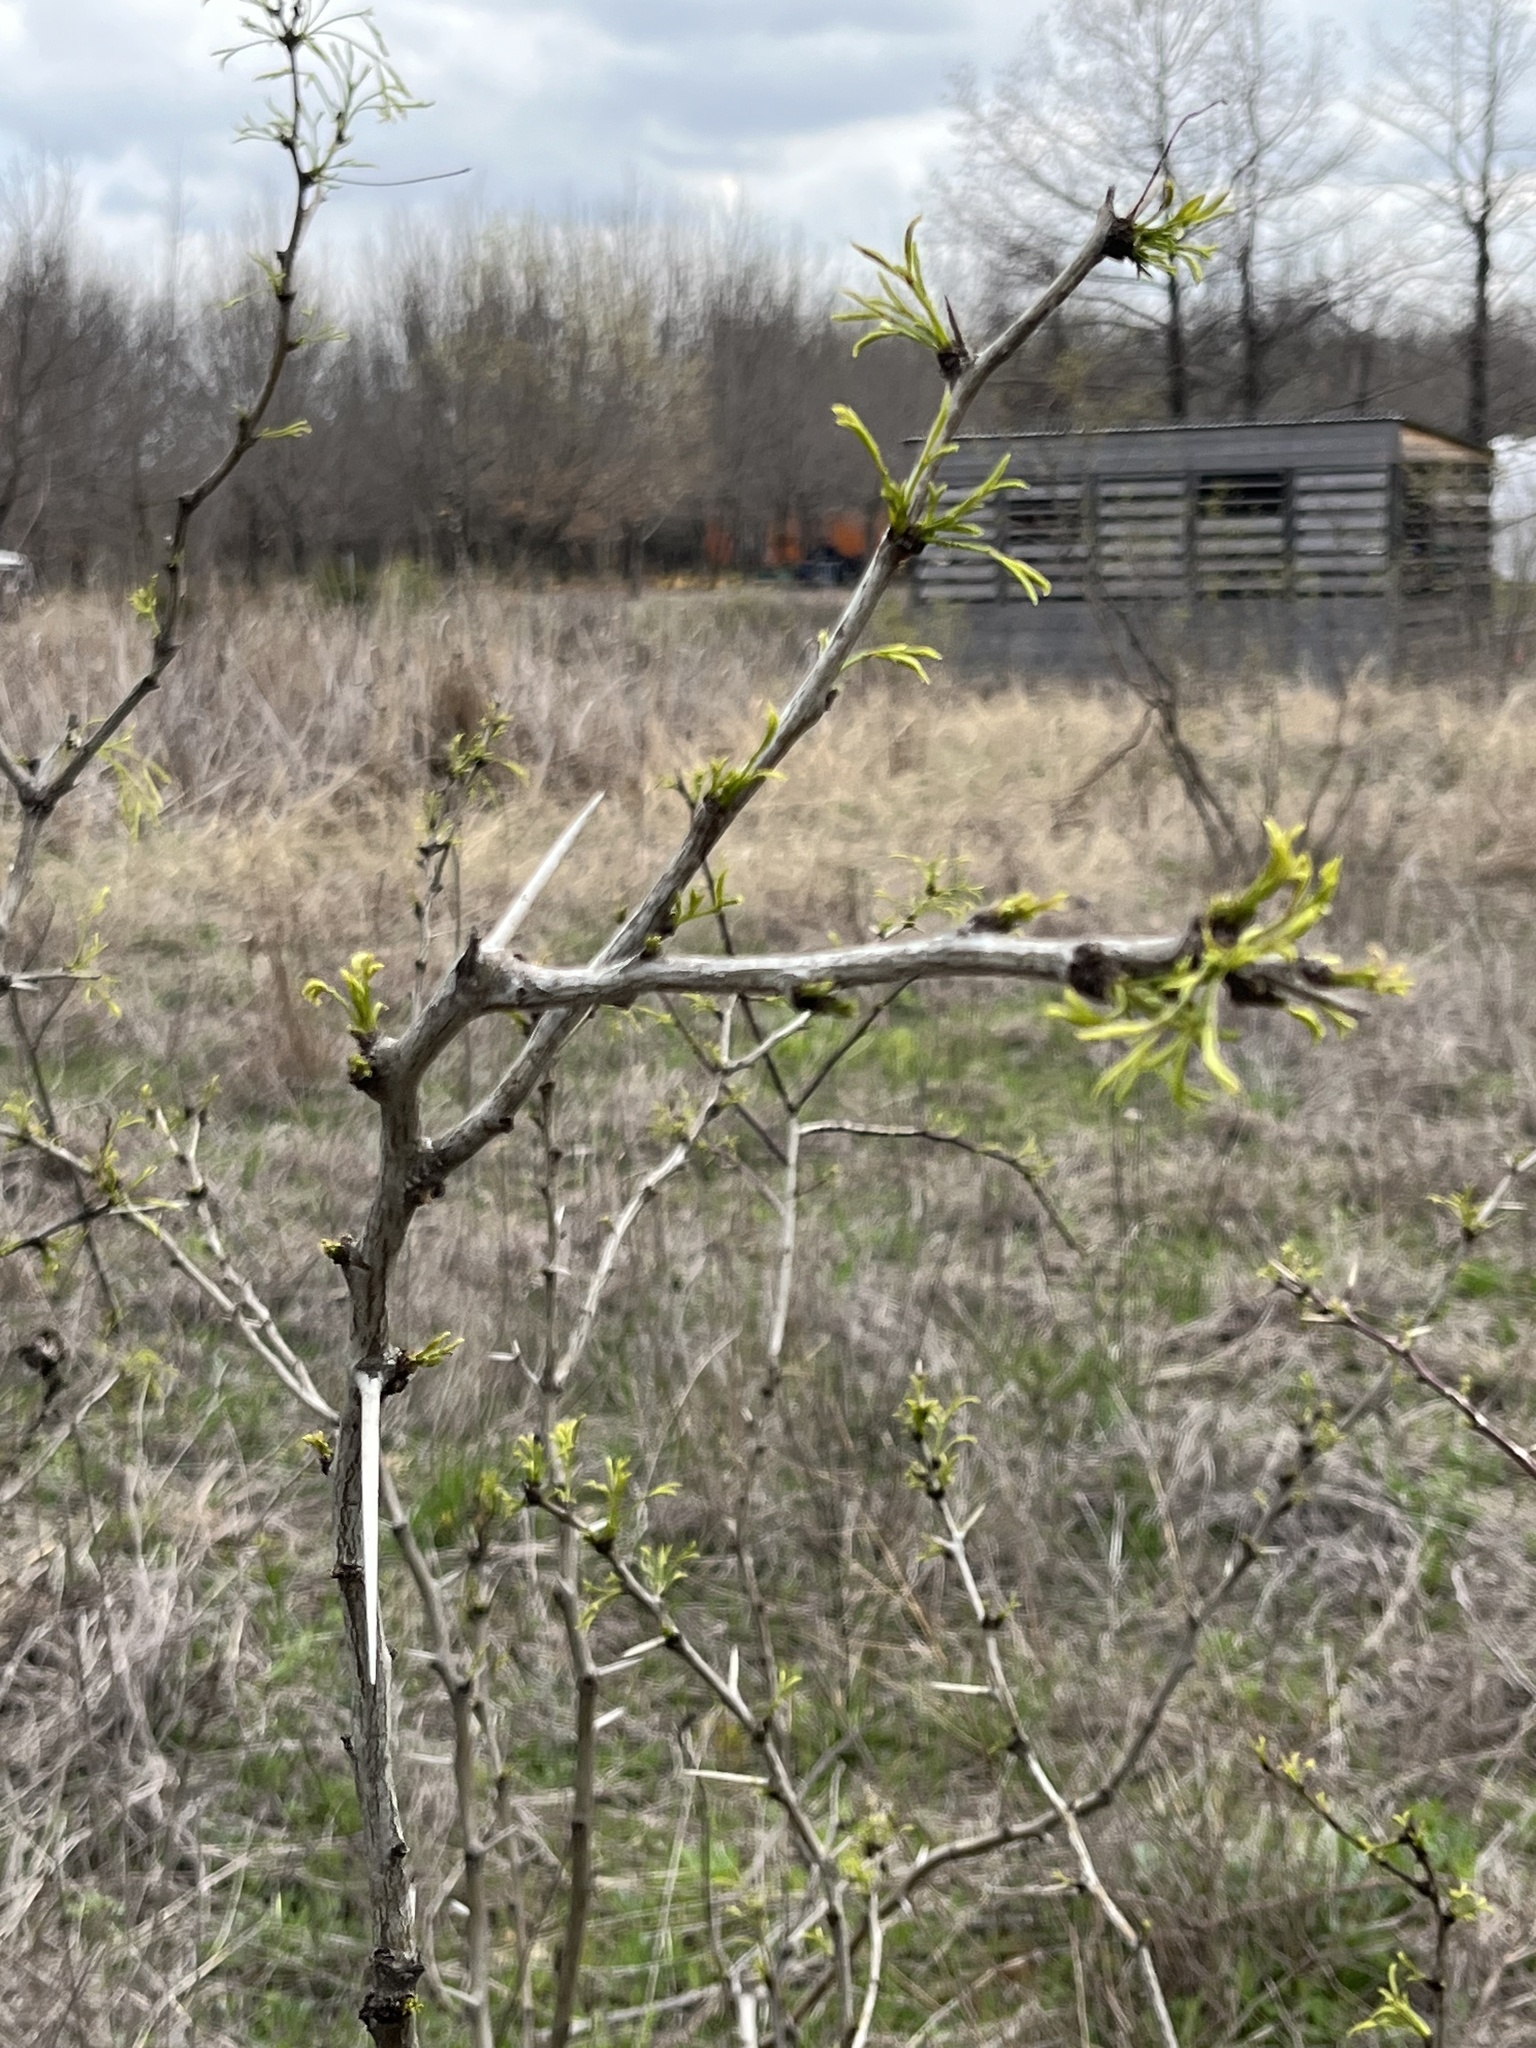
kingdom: Plantae
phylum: Tracheophyta
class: Magnoliopsida
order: Fabales
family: Fabaceae
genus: Prosopis
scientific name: Prosopis glandulosa
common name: Honey mesquite
